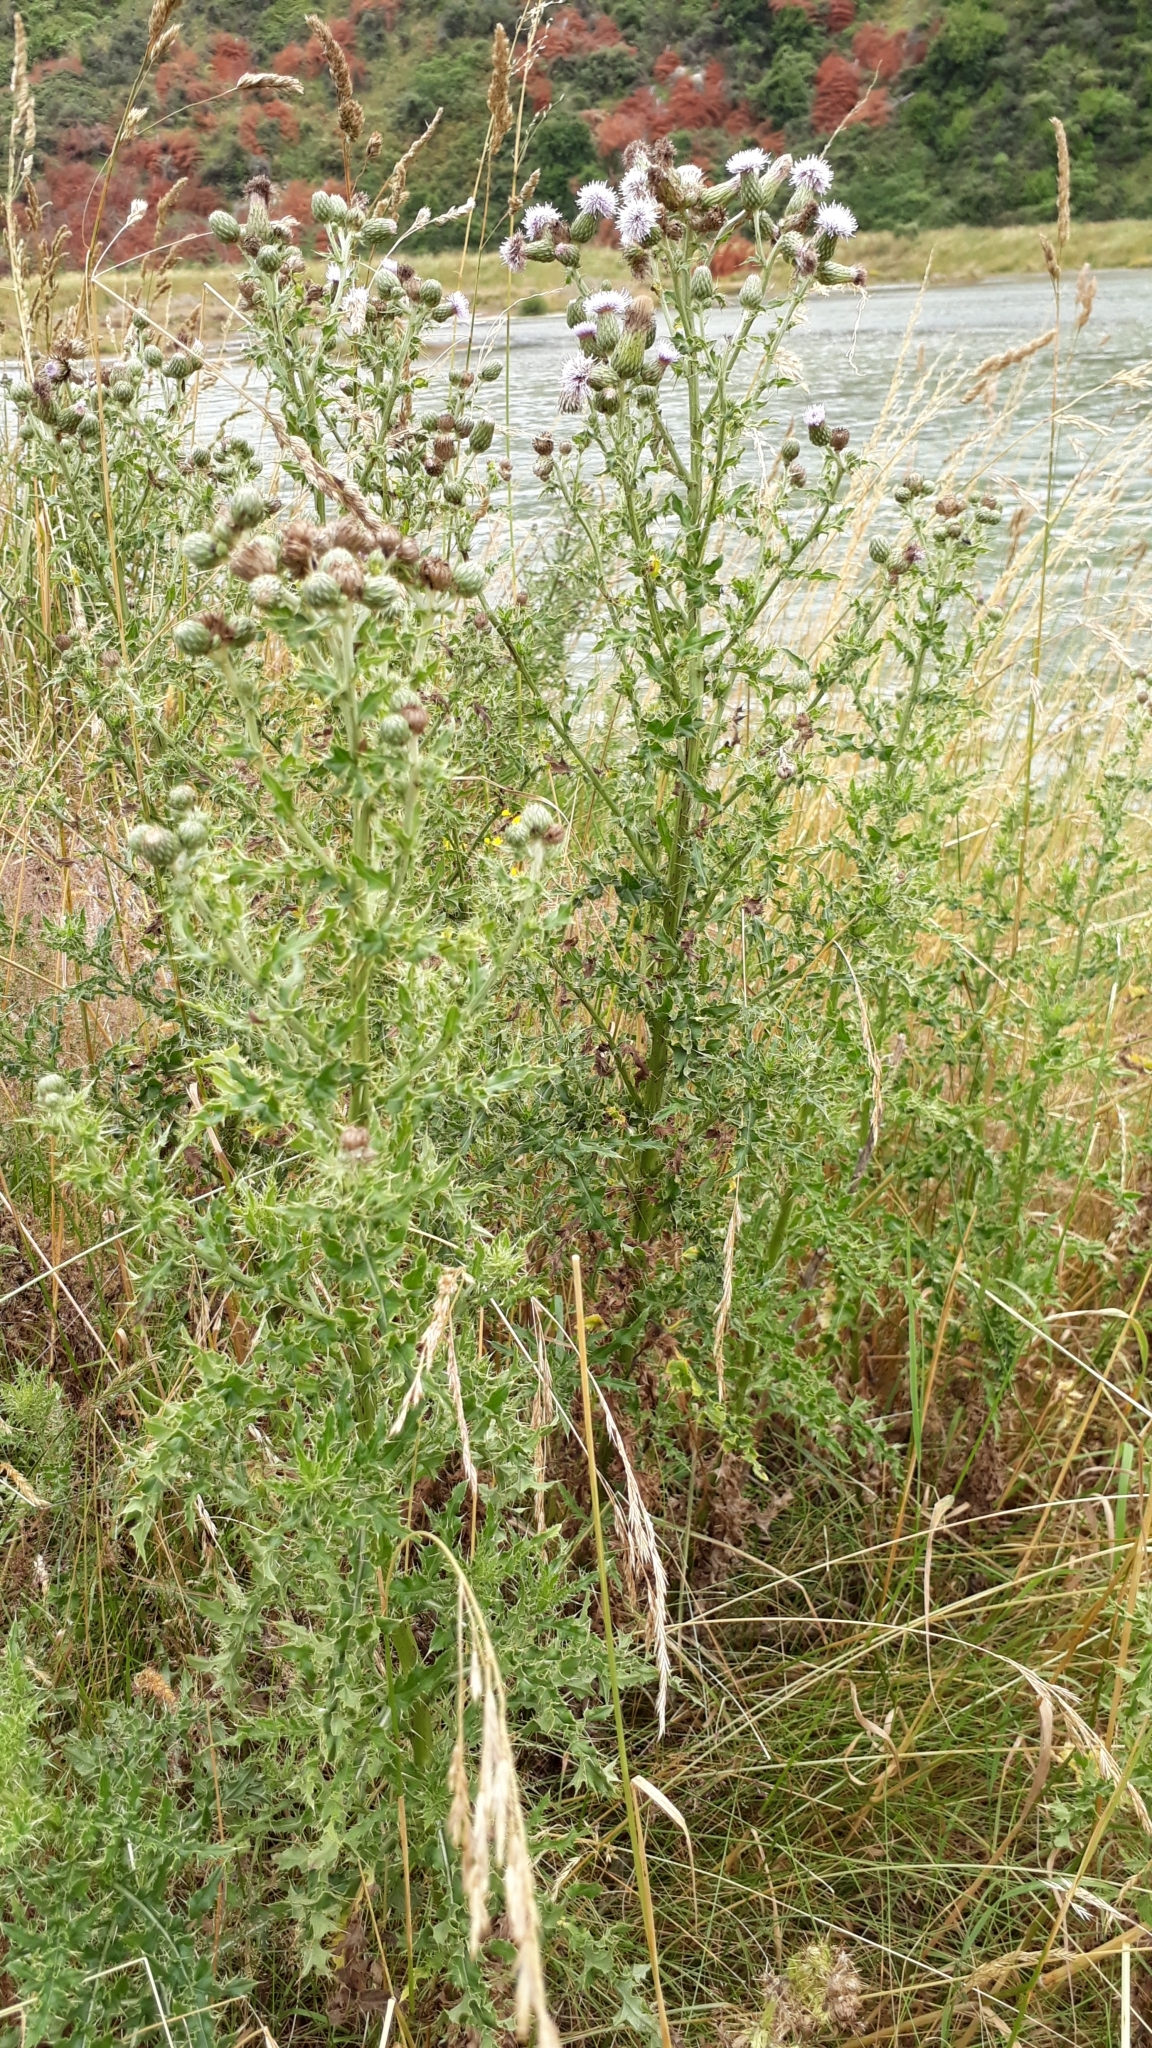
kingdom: Plantae
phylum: Tracheophyta
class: Magnoliopsida
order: Asterales
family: Asteraceae
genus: Cirsium
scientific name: Cirsium arvense
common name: Creeping thistle
